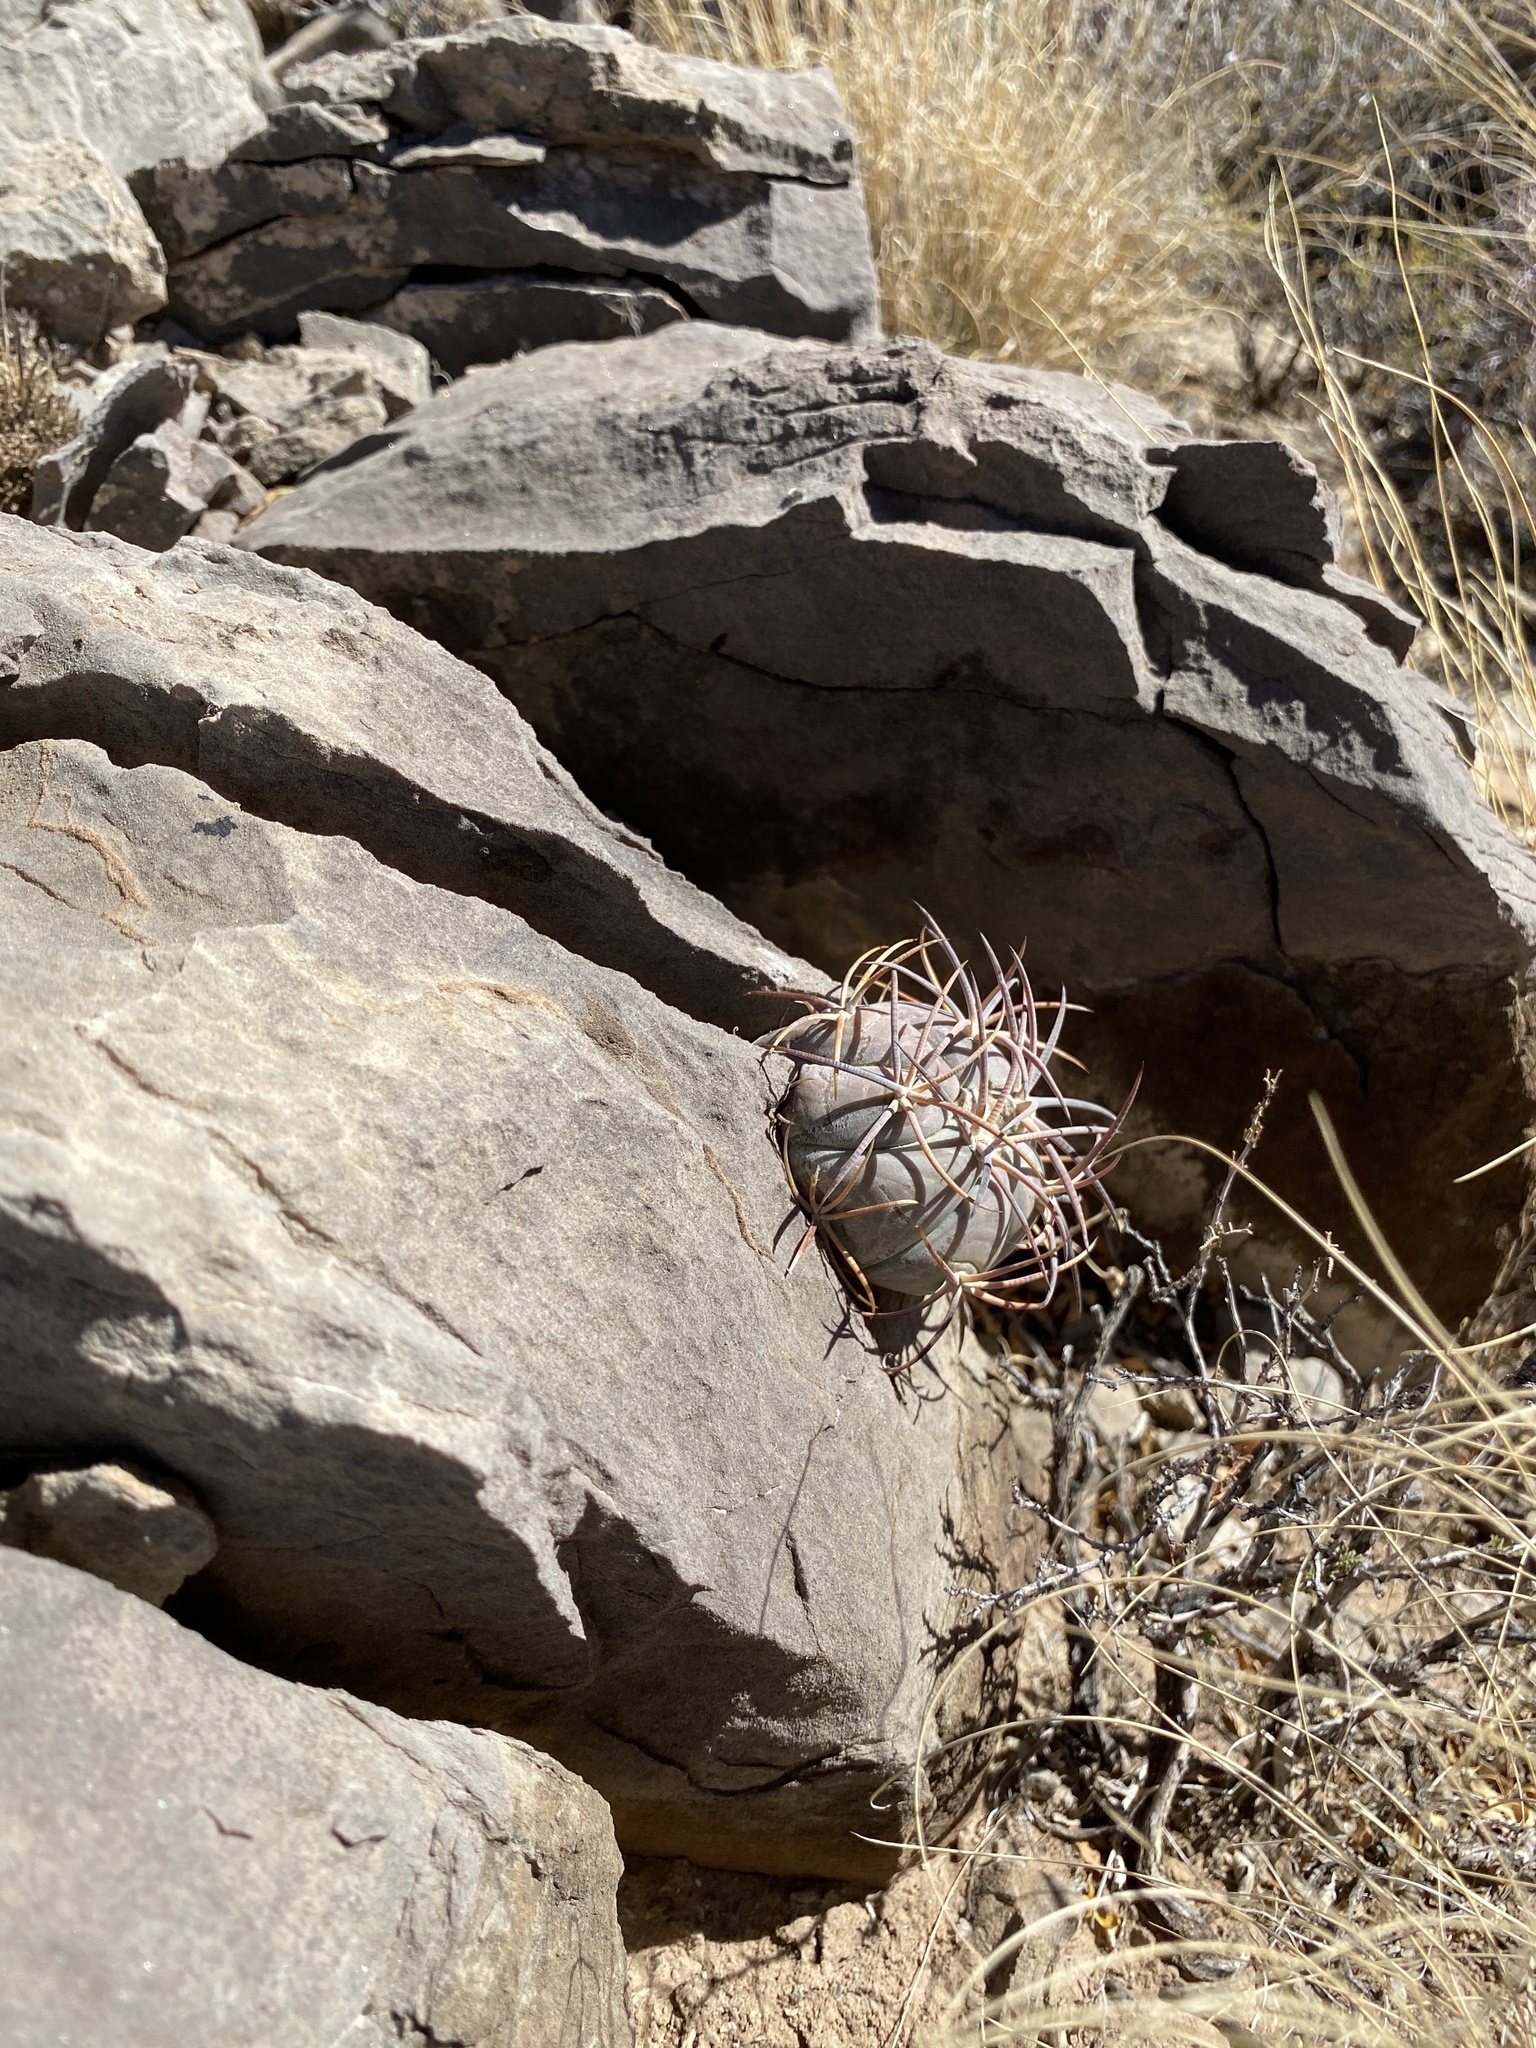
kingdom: Plantae
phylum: Tracheophyta
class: Magnoliopsida
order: Caryophyllales
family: Cactaceae
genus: Echinocactus
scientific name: Echinocactus horizonthalonius
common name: Devilshead
